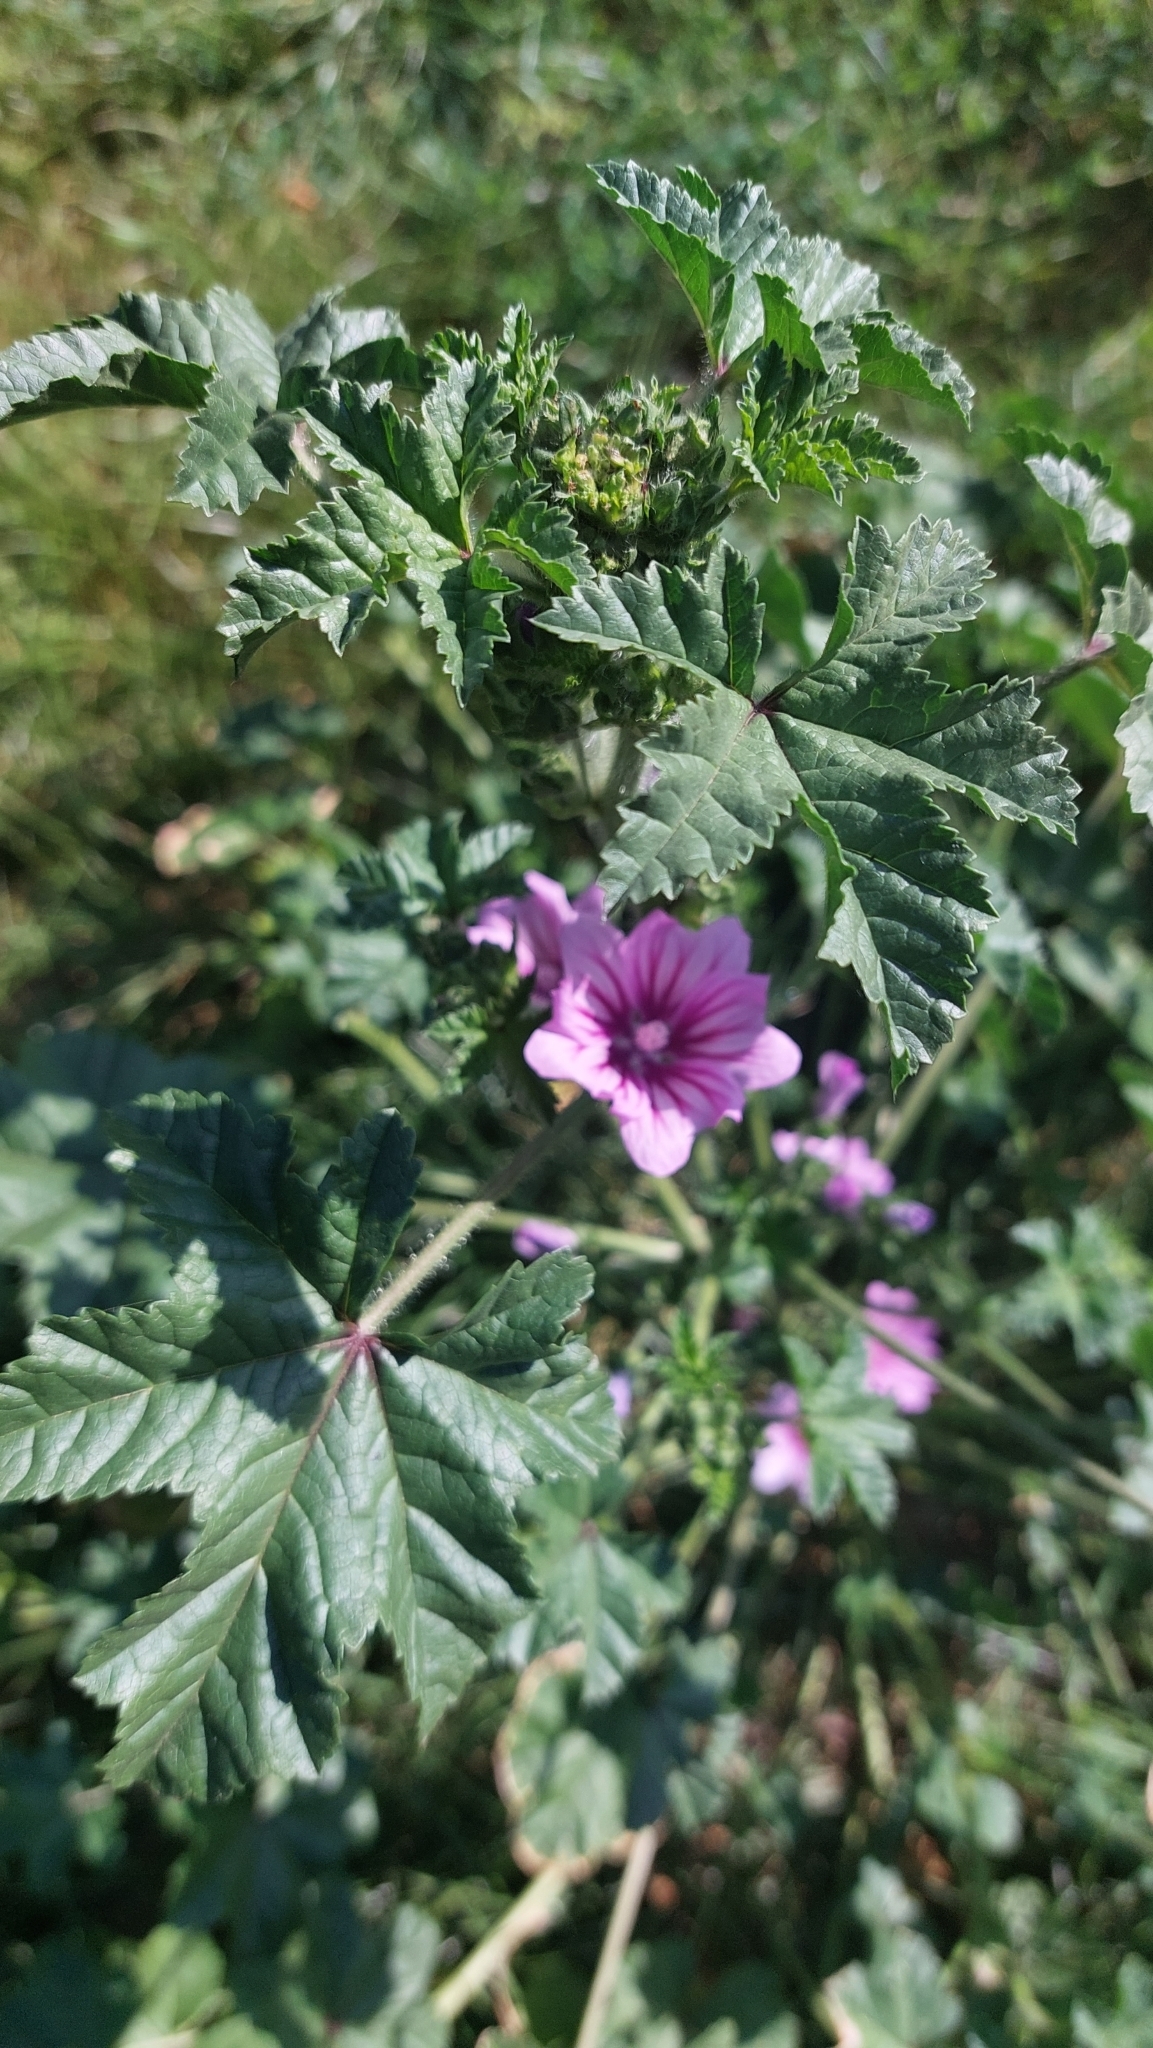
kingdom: Plantae
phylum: Tracheophyta
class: Magnoliopsida
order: Malvales
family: Malvaceae
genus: Malva
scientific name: Malva sylvestris
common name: Common mallow
